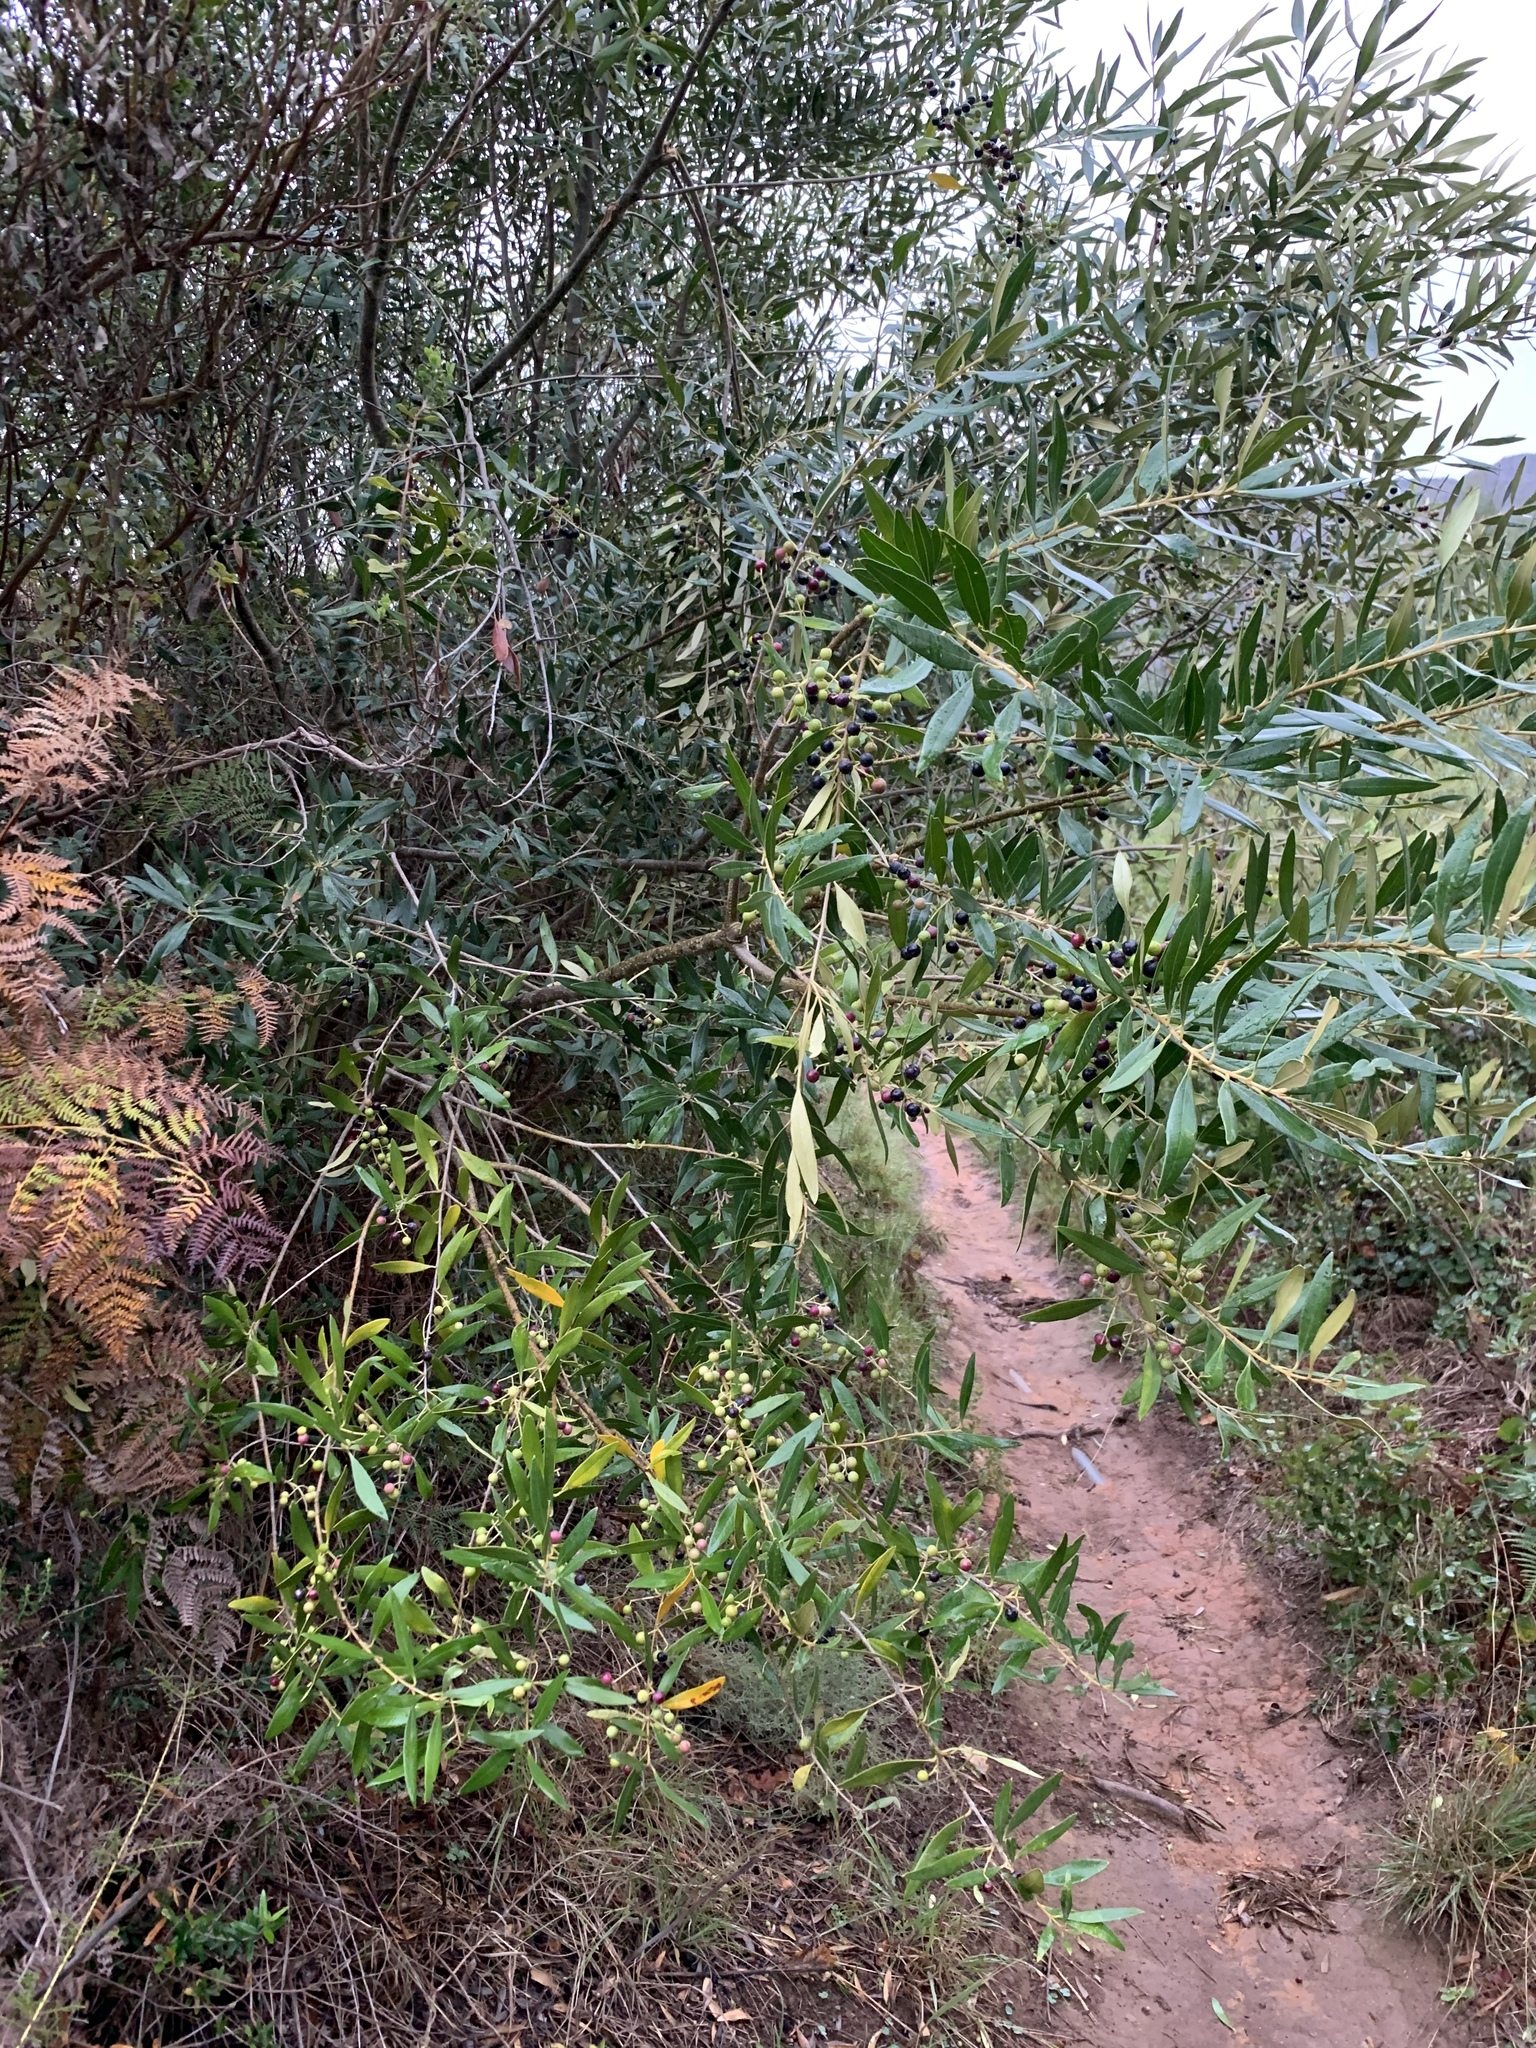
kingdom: Plantae
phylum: Tracheophyta
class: Magnoliopsida
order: Lamiales
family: Oleaceae
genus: Olea
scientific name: Olea europaea
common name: Olive
